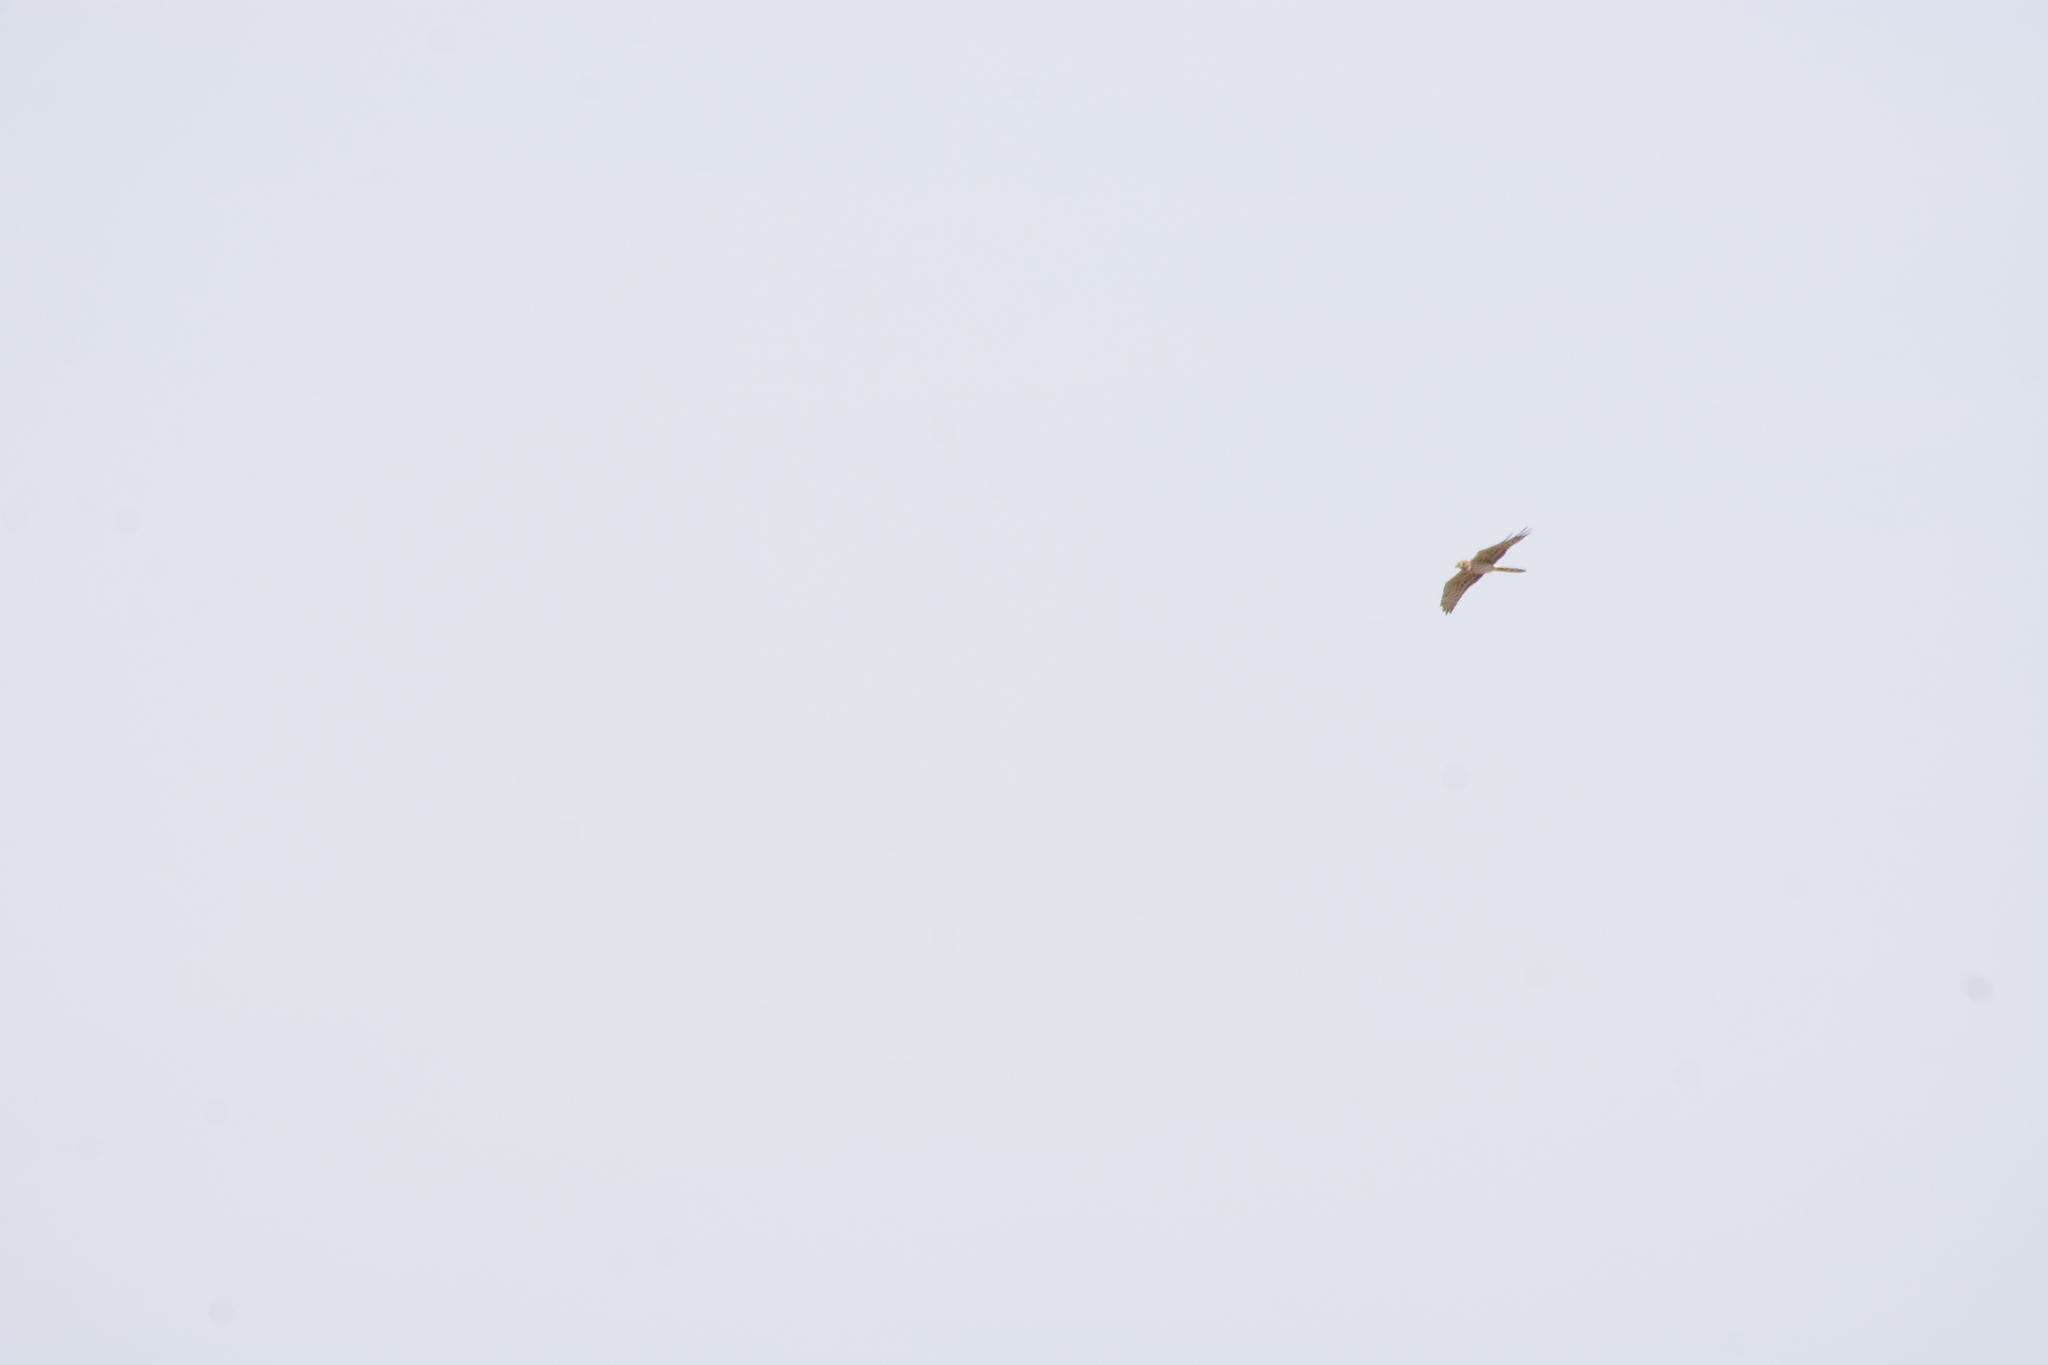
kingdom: Animalia
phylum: Chordata
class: Aves
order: Accipitriformes
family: Accipitridae
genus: Circus
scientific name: Circus pygargus
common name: Montagu's harrier
